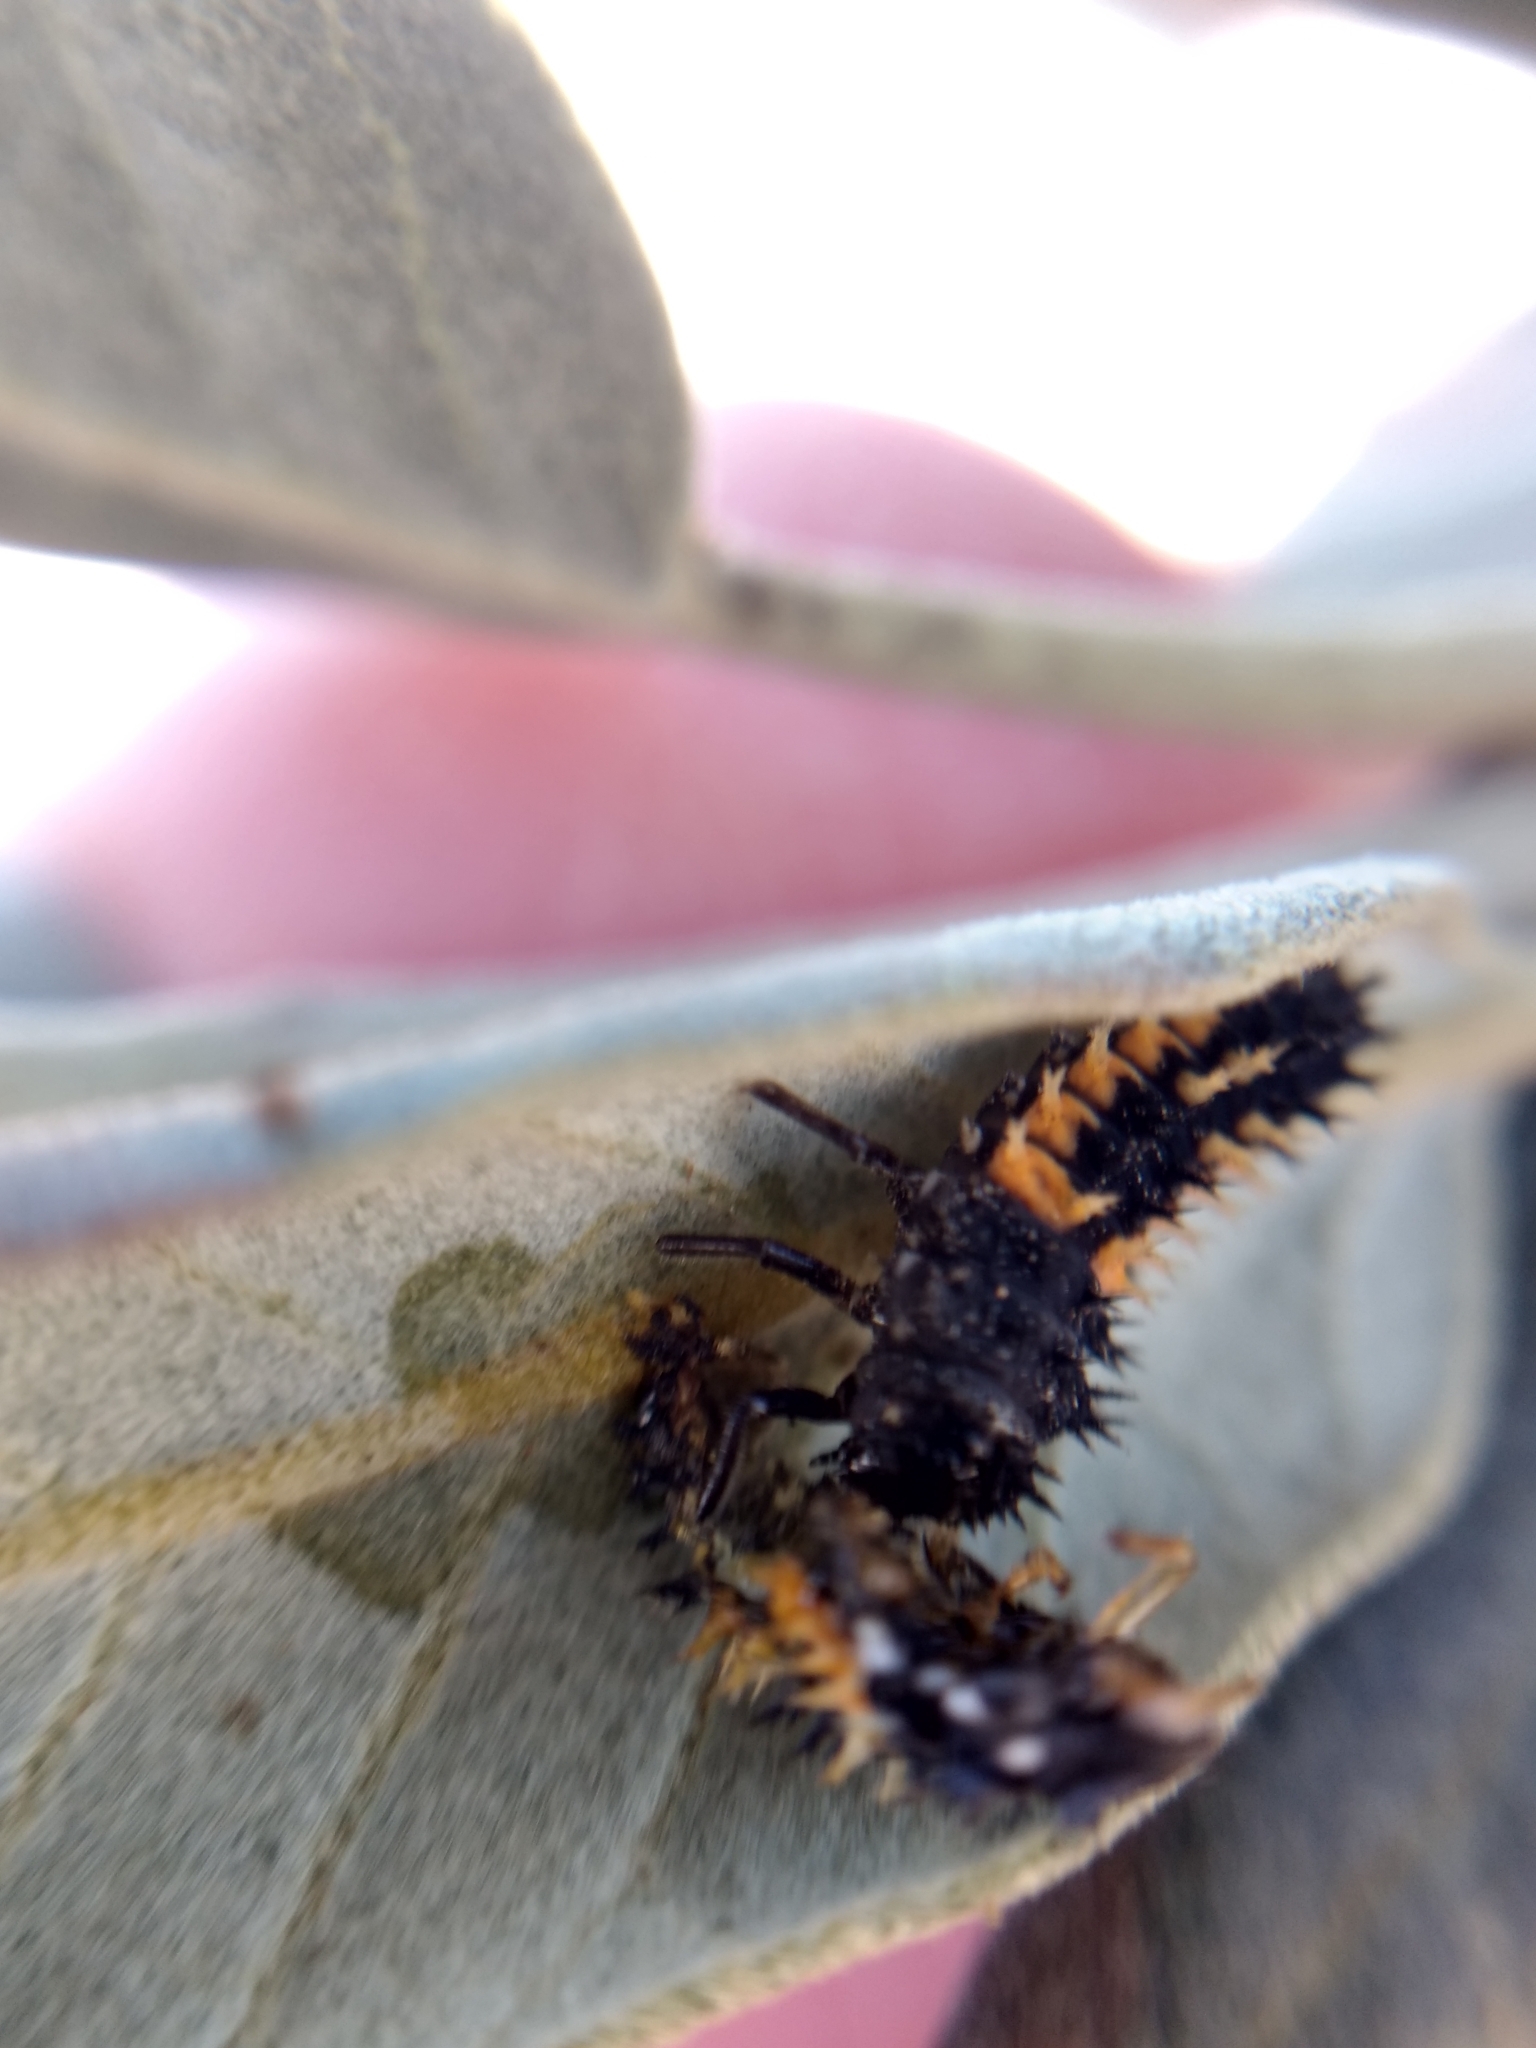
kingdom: Animalia
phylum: Arthropoda
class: Insecta
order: Coleoptera
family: Coccinellidae
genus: Harmonia
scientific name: Harmonia axyridis
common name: Harlequin ladybird
